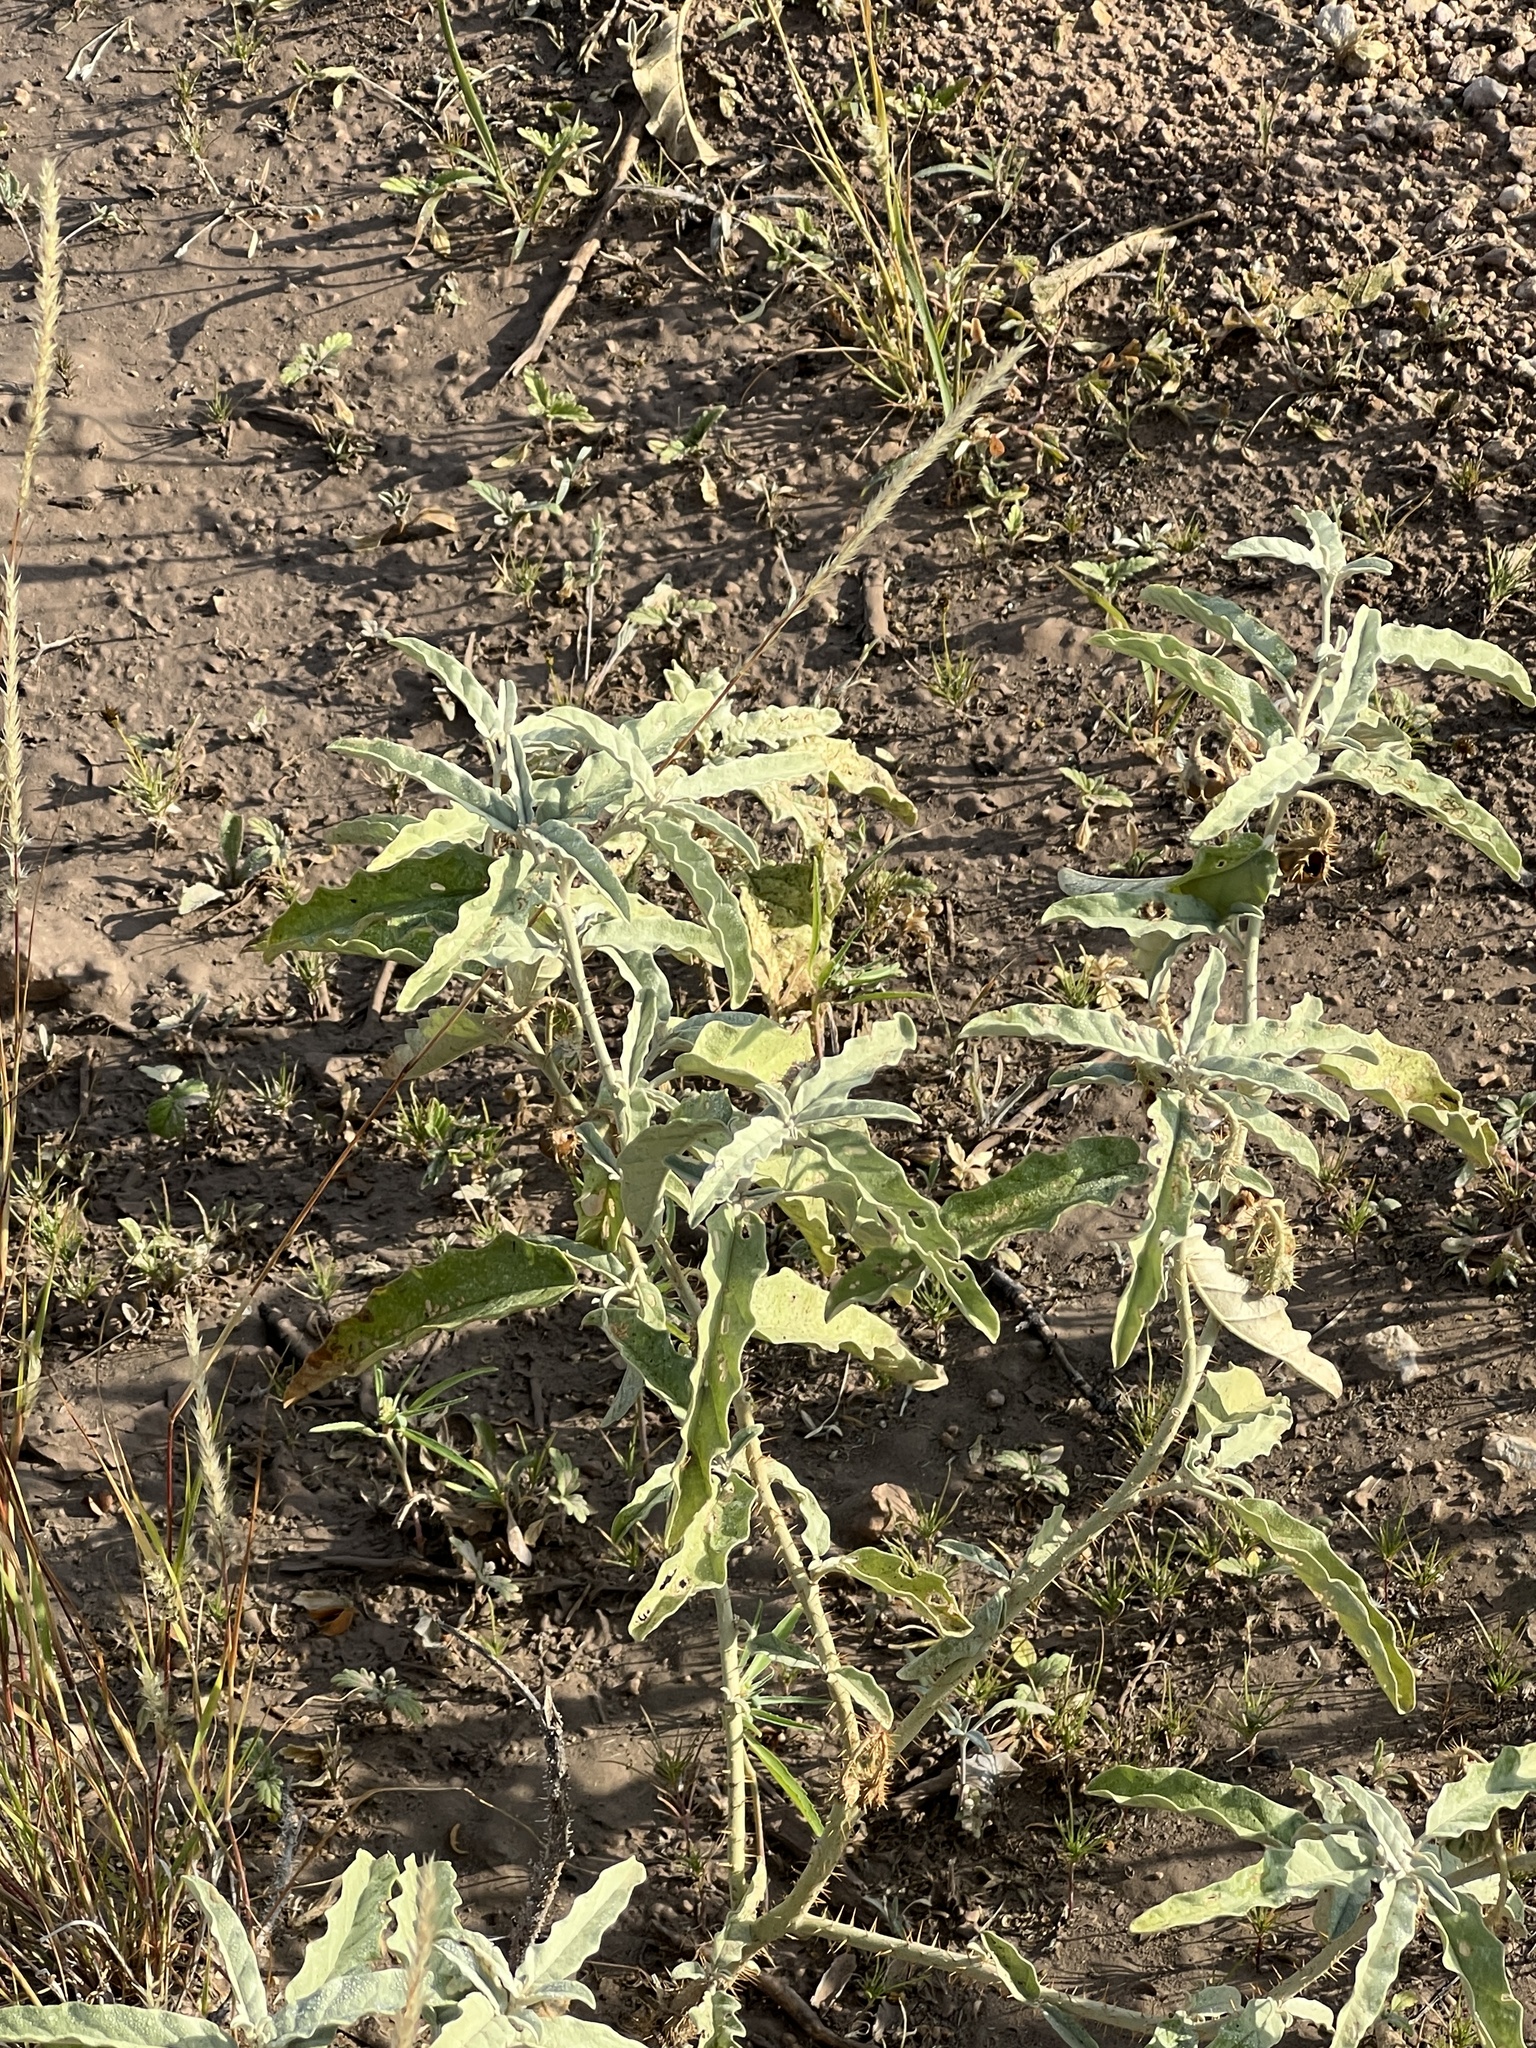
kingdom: Plantae
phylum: Tracheophyta
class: Magnoliopsida
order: Solanales
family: Solanaceae
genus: Solanum
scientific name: Solanum elaeagnifolium
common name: Silverleaf nightshade
